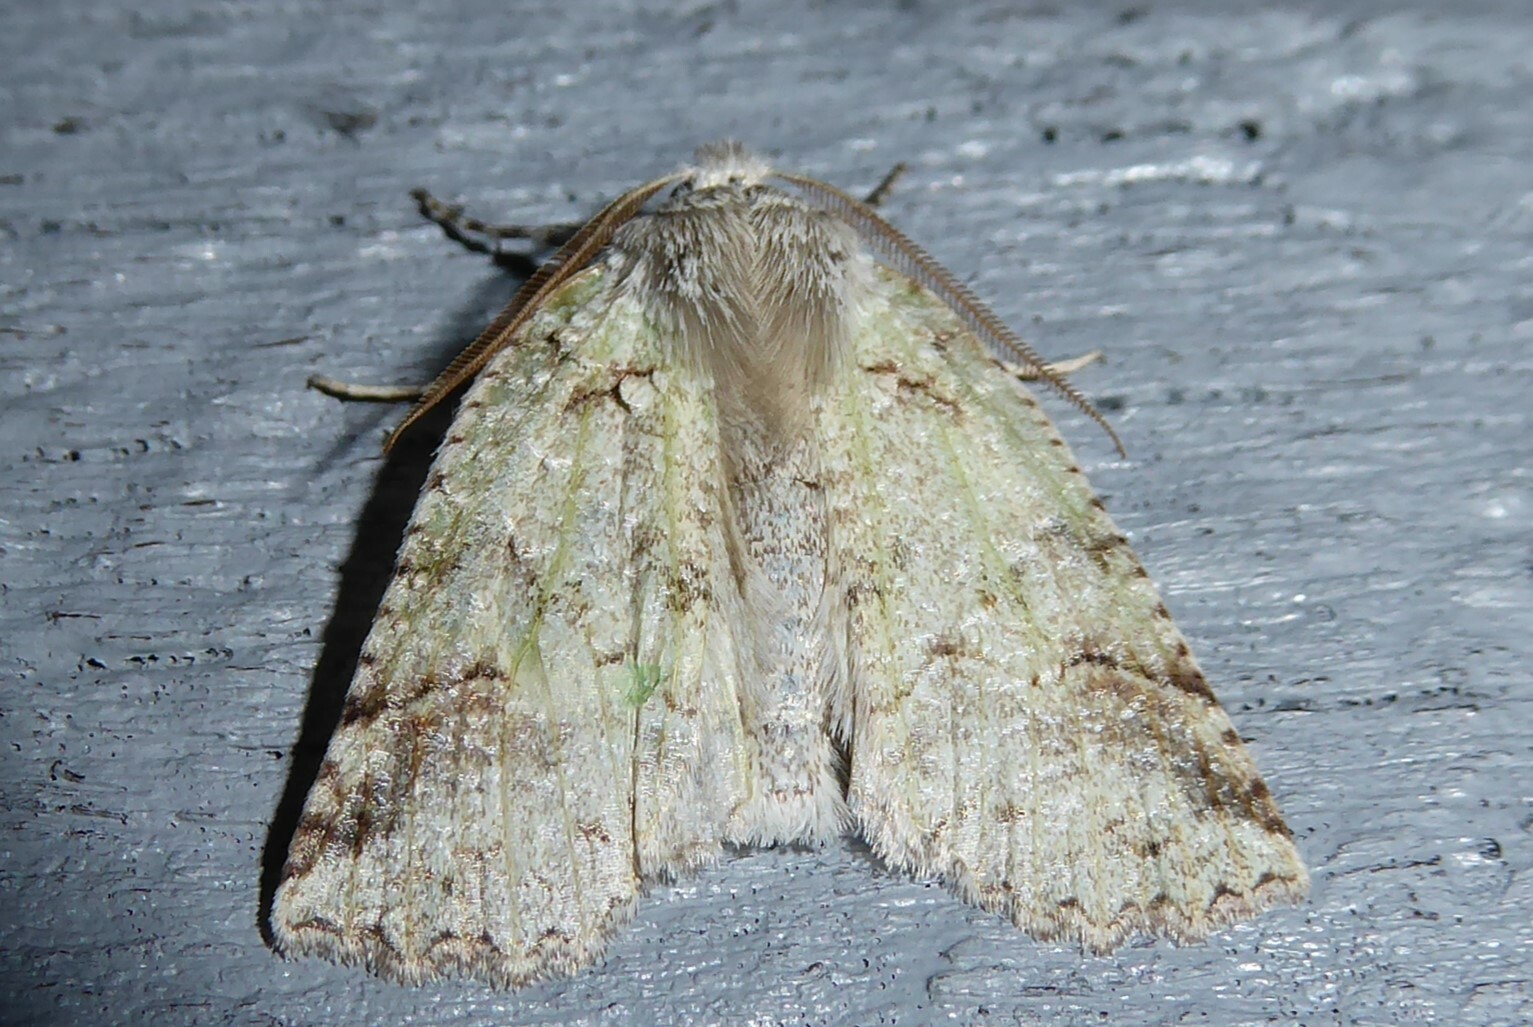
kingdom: Animalia
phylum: Arthropoda
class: Insecta
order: Lepidoptera
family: Geometridae
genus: Declana
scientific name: Declana floccosa
